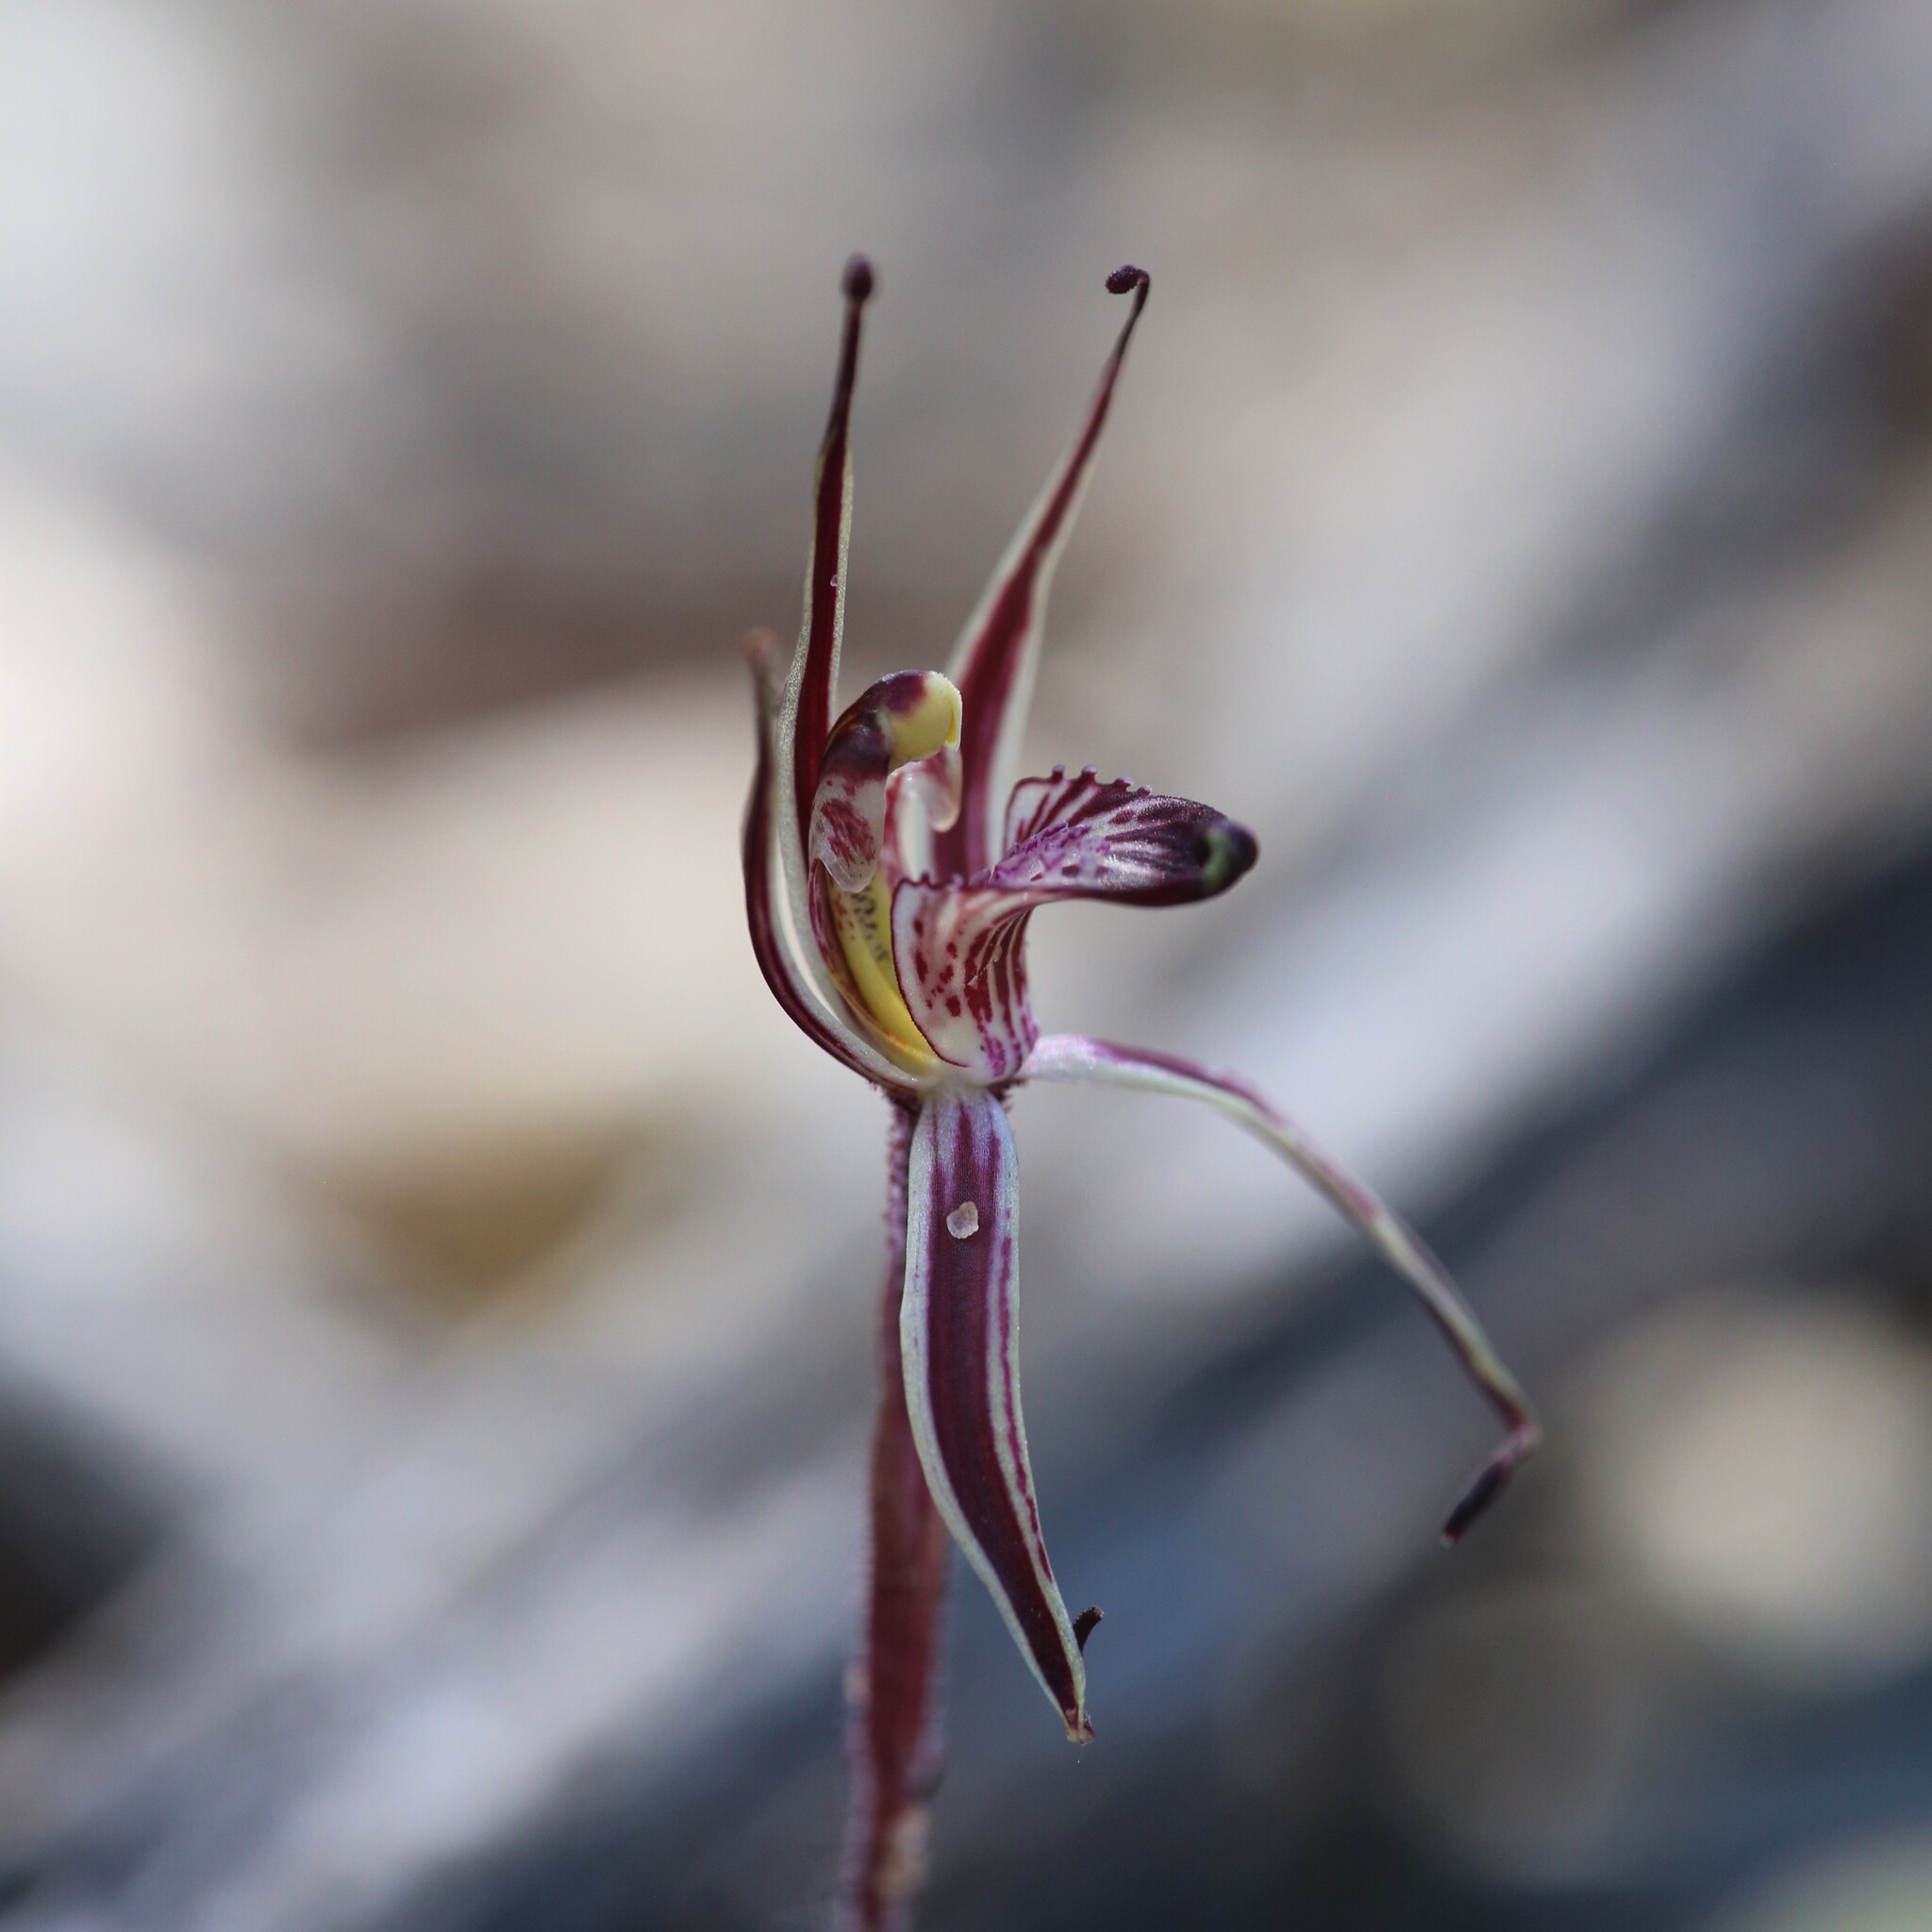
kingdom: Plantae
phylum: Tracheophyta
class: Liliopsida
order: Asparagales
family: Orchidaceae
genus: Caladenia
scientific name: Caladenia sigmoidea
